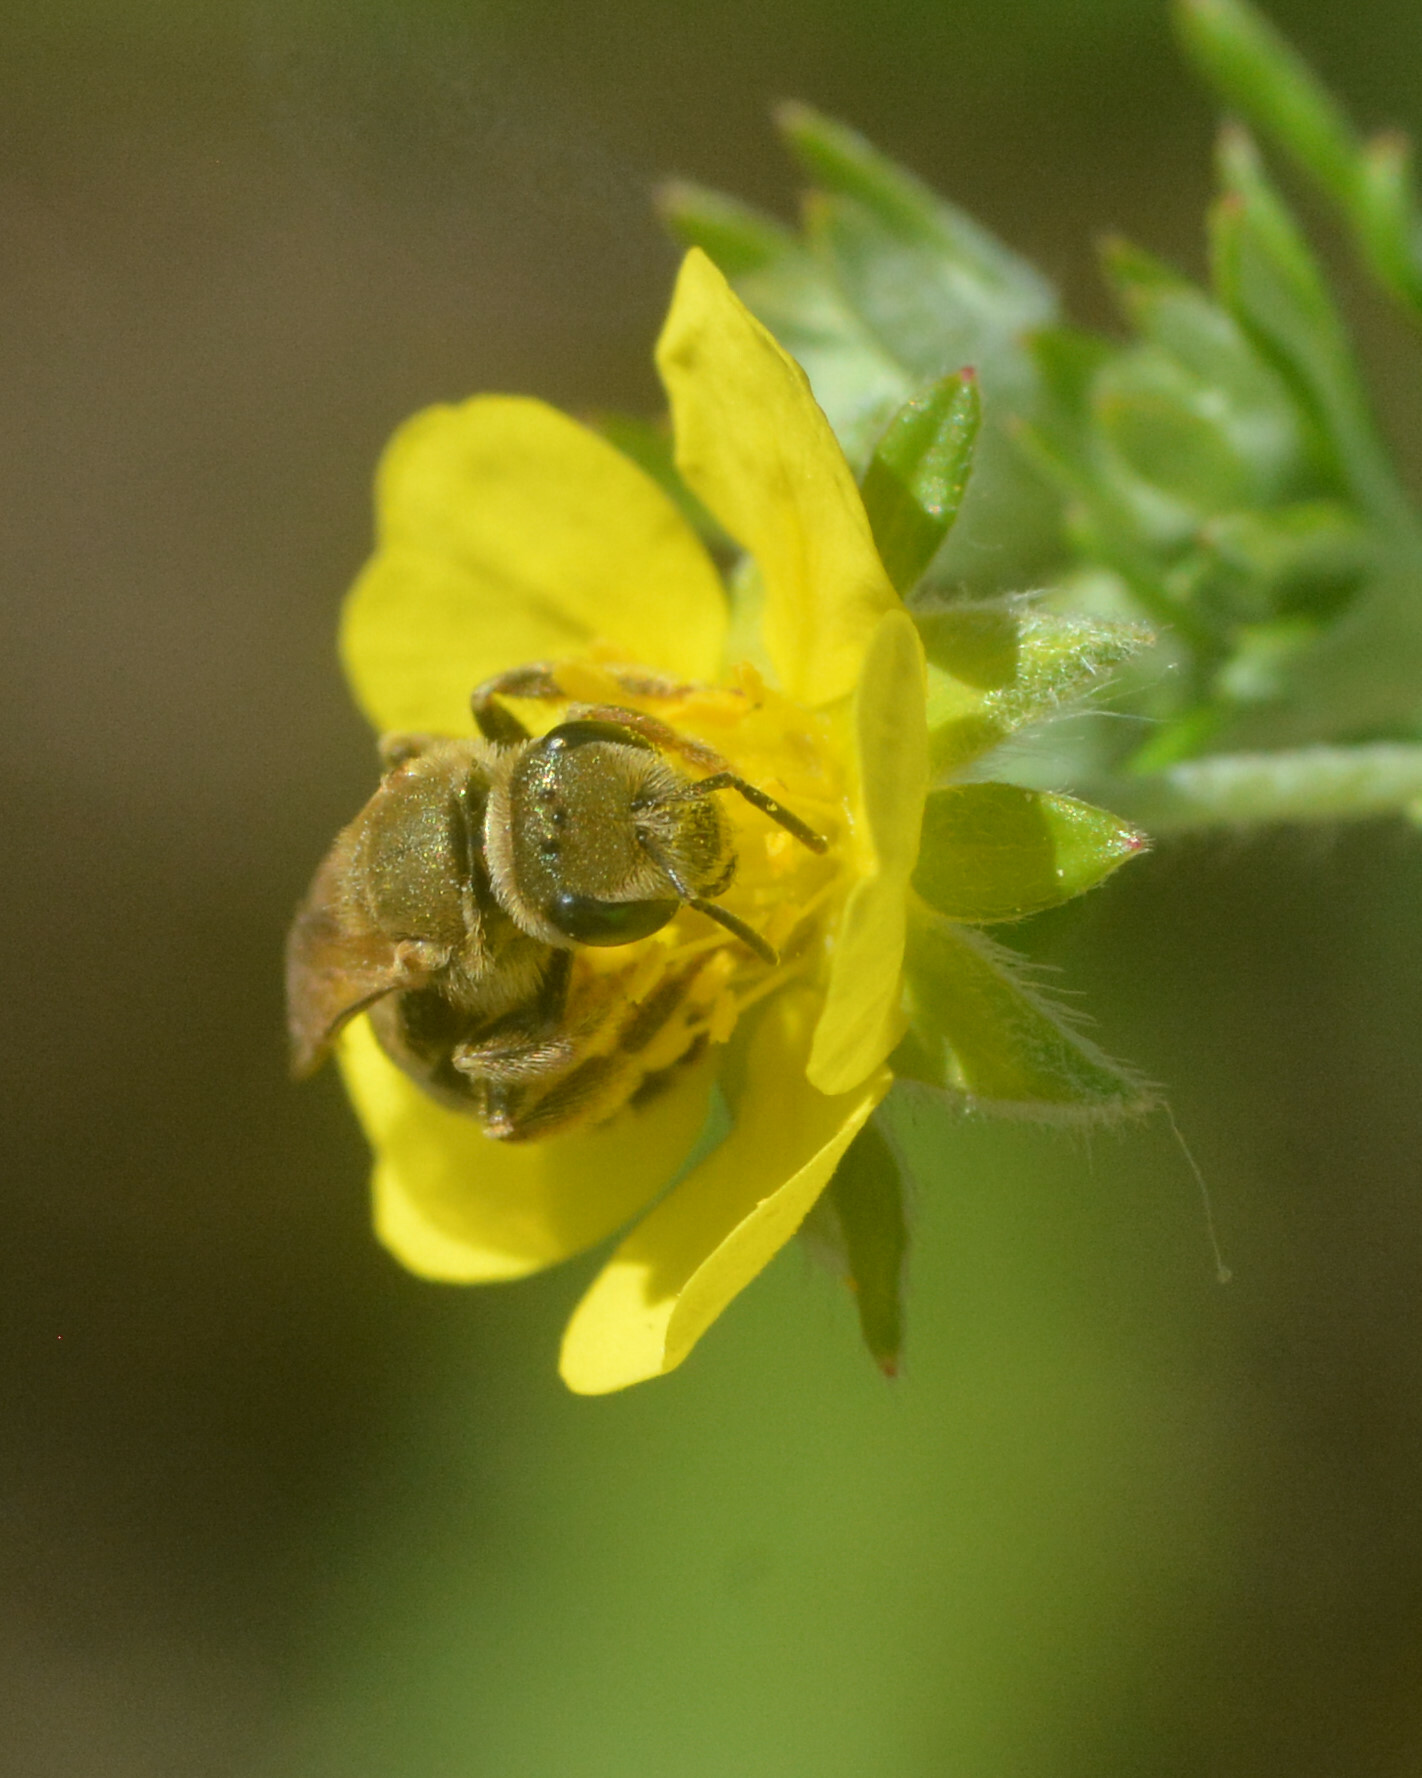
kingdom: Animalia
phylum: Arthropoda
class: Insecta
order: Hymenoptera
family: Halictidae
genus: Halictus
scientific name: Halictus subauratus
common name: Golden furrow bee
